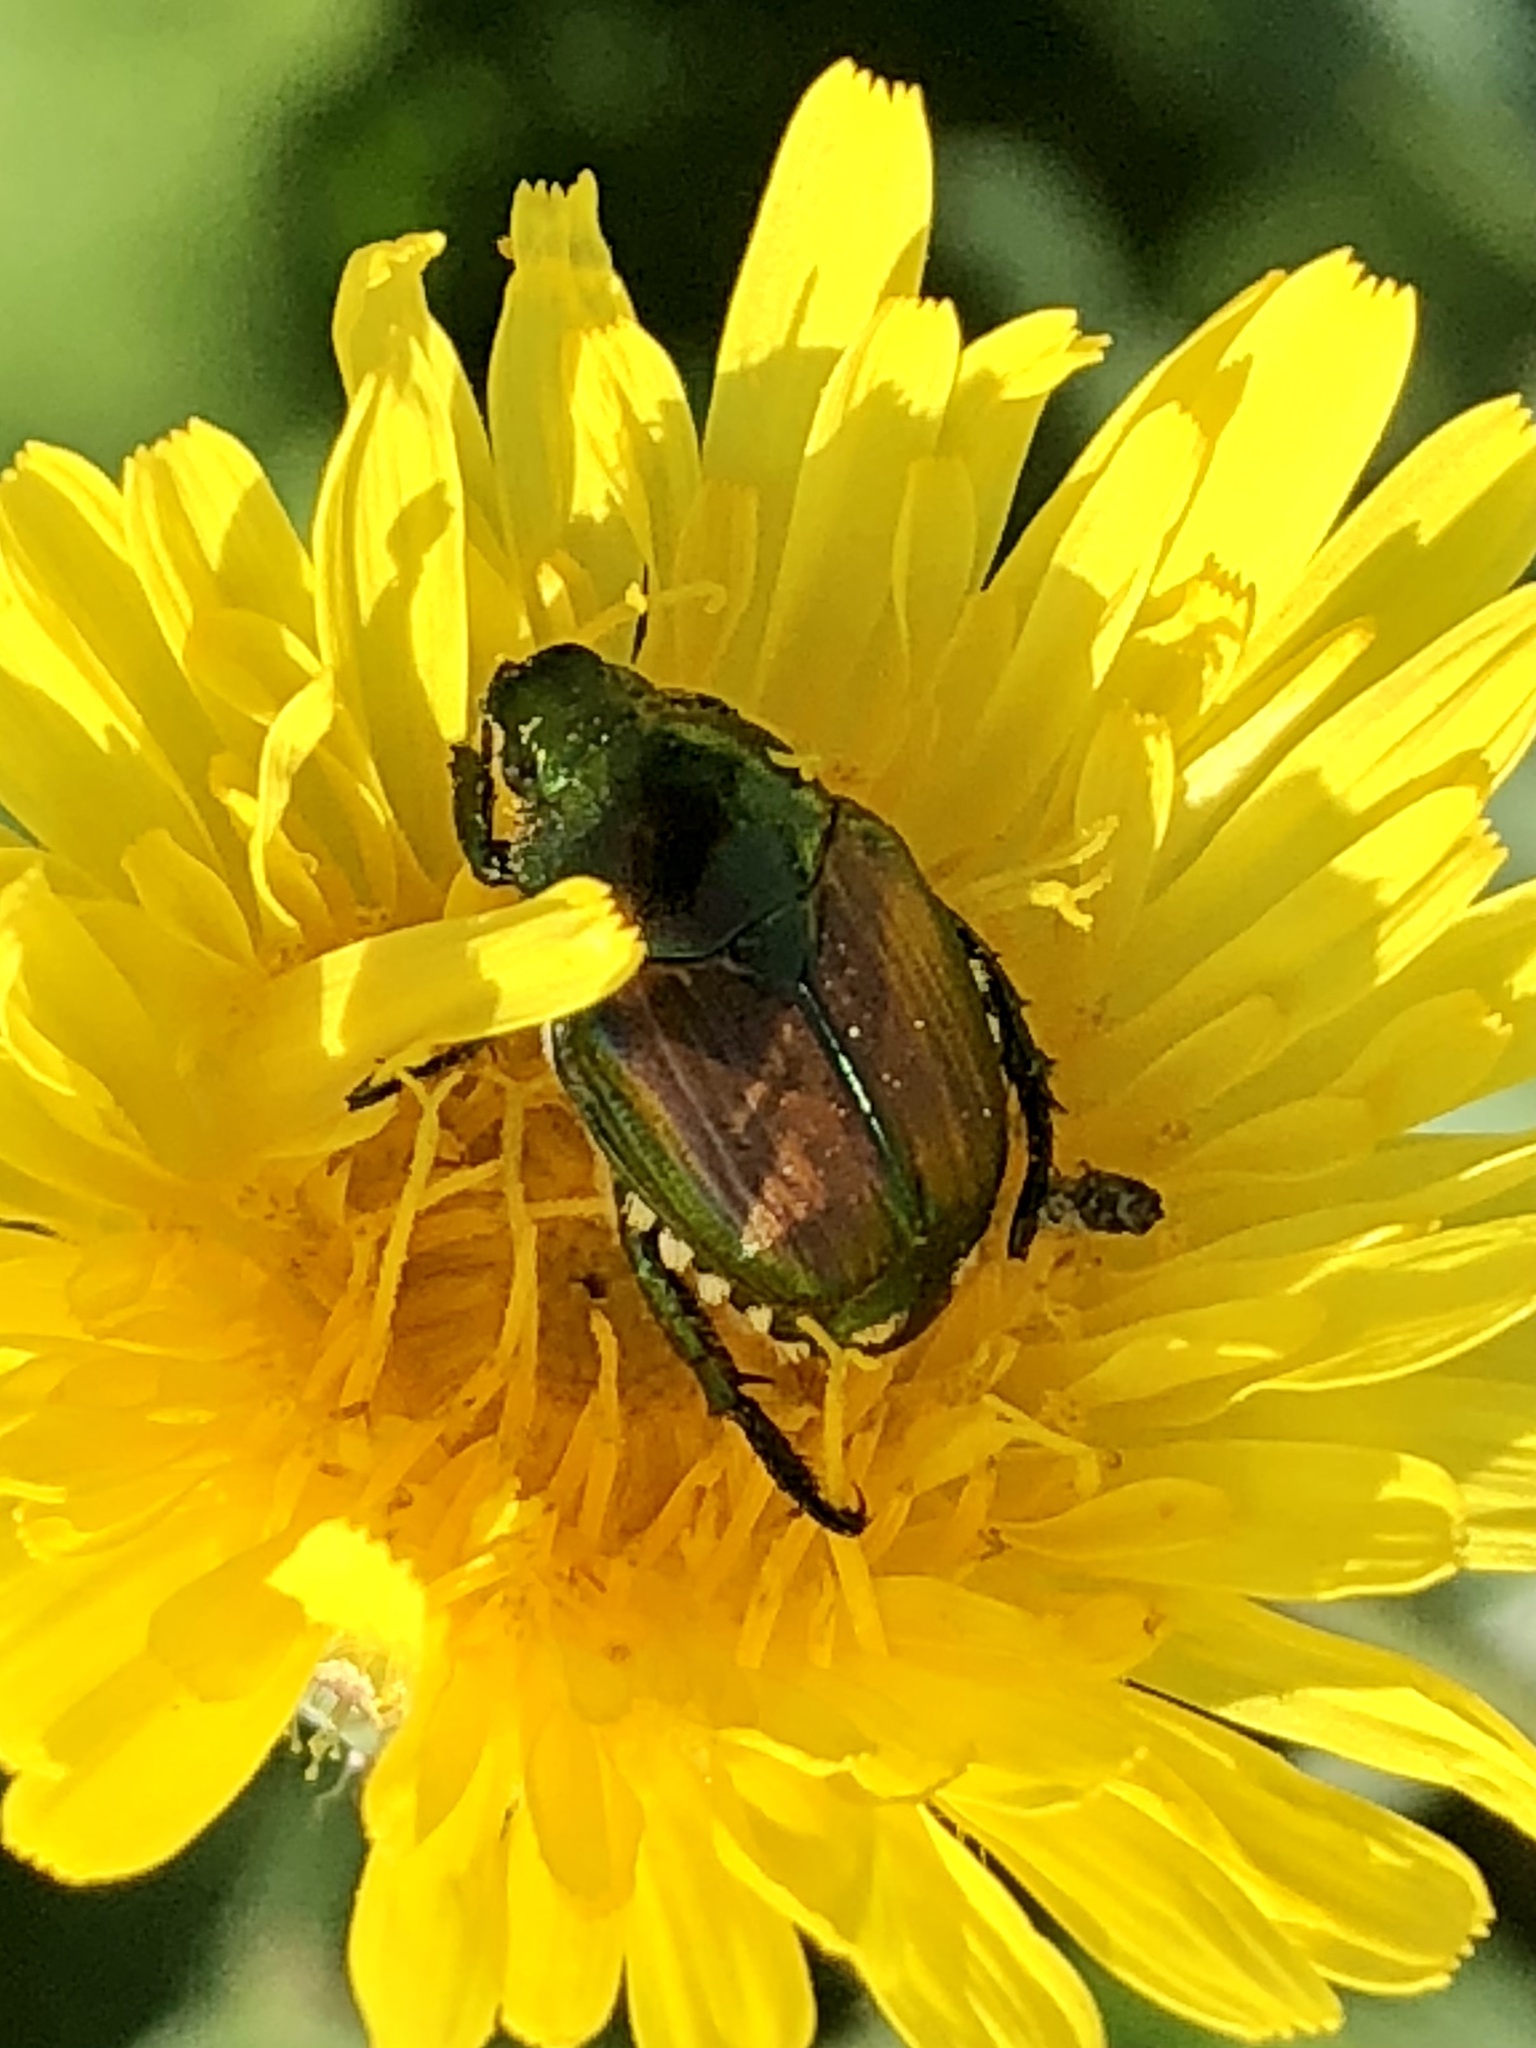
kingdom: Animalia
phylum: Arthropoda
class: Insecta
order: Coleoptera
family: Scarabaeidae
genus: Popillia
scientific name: Popillia japonica
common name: Japanese beetle
